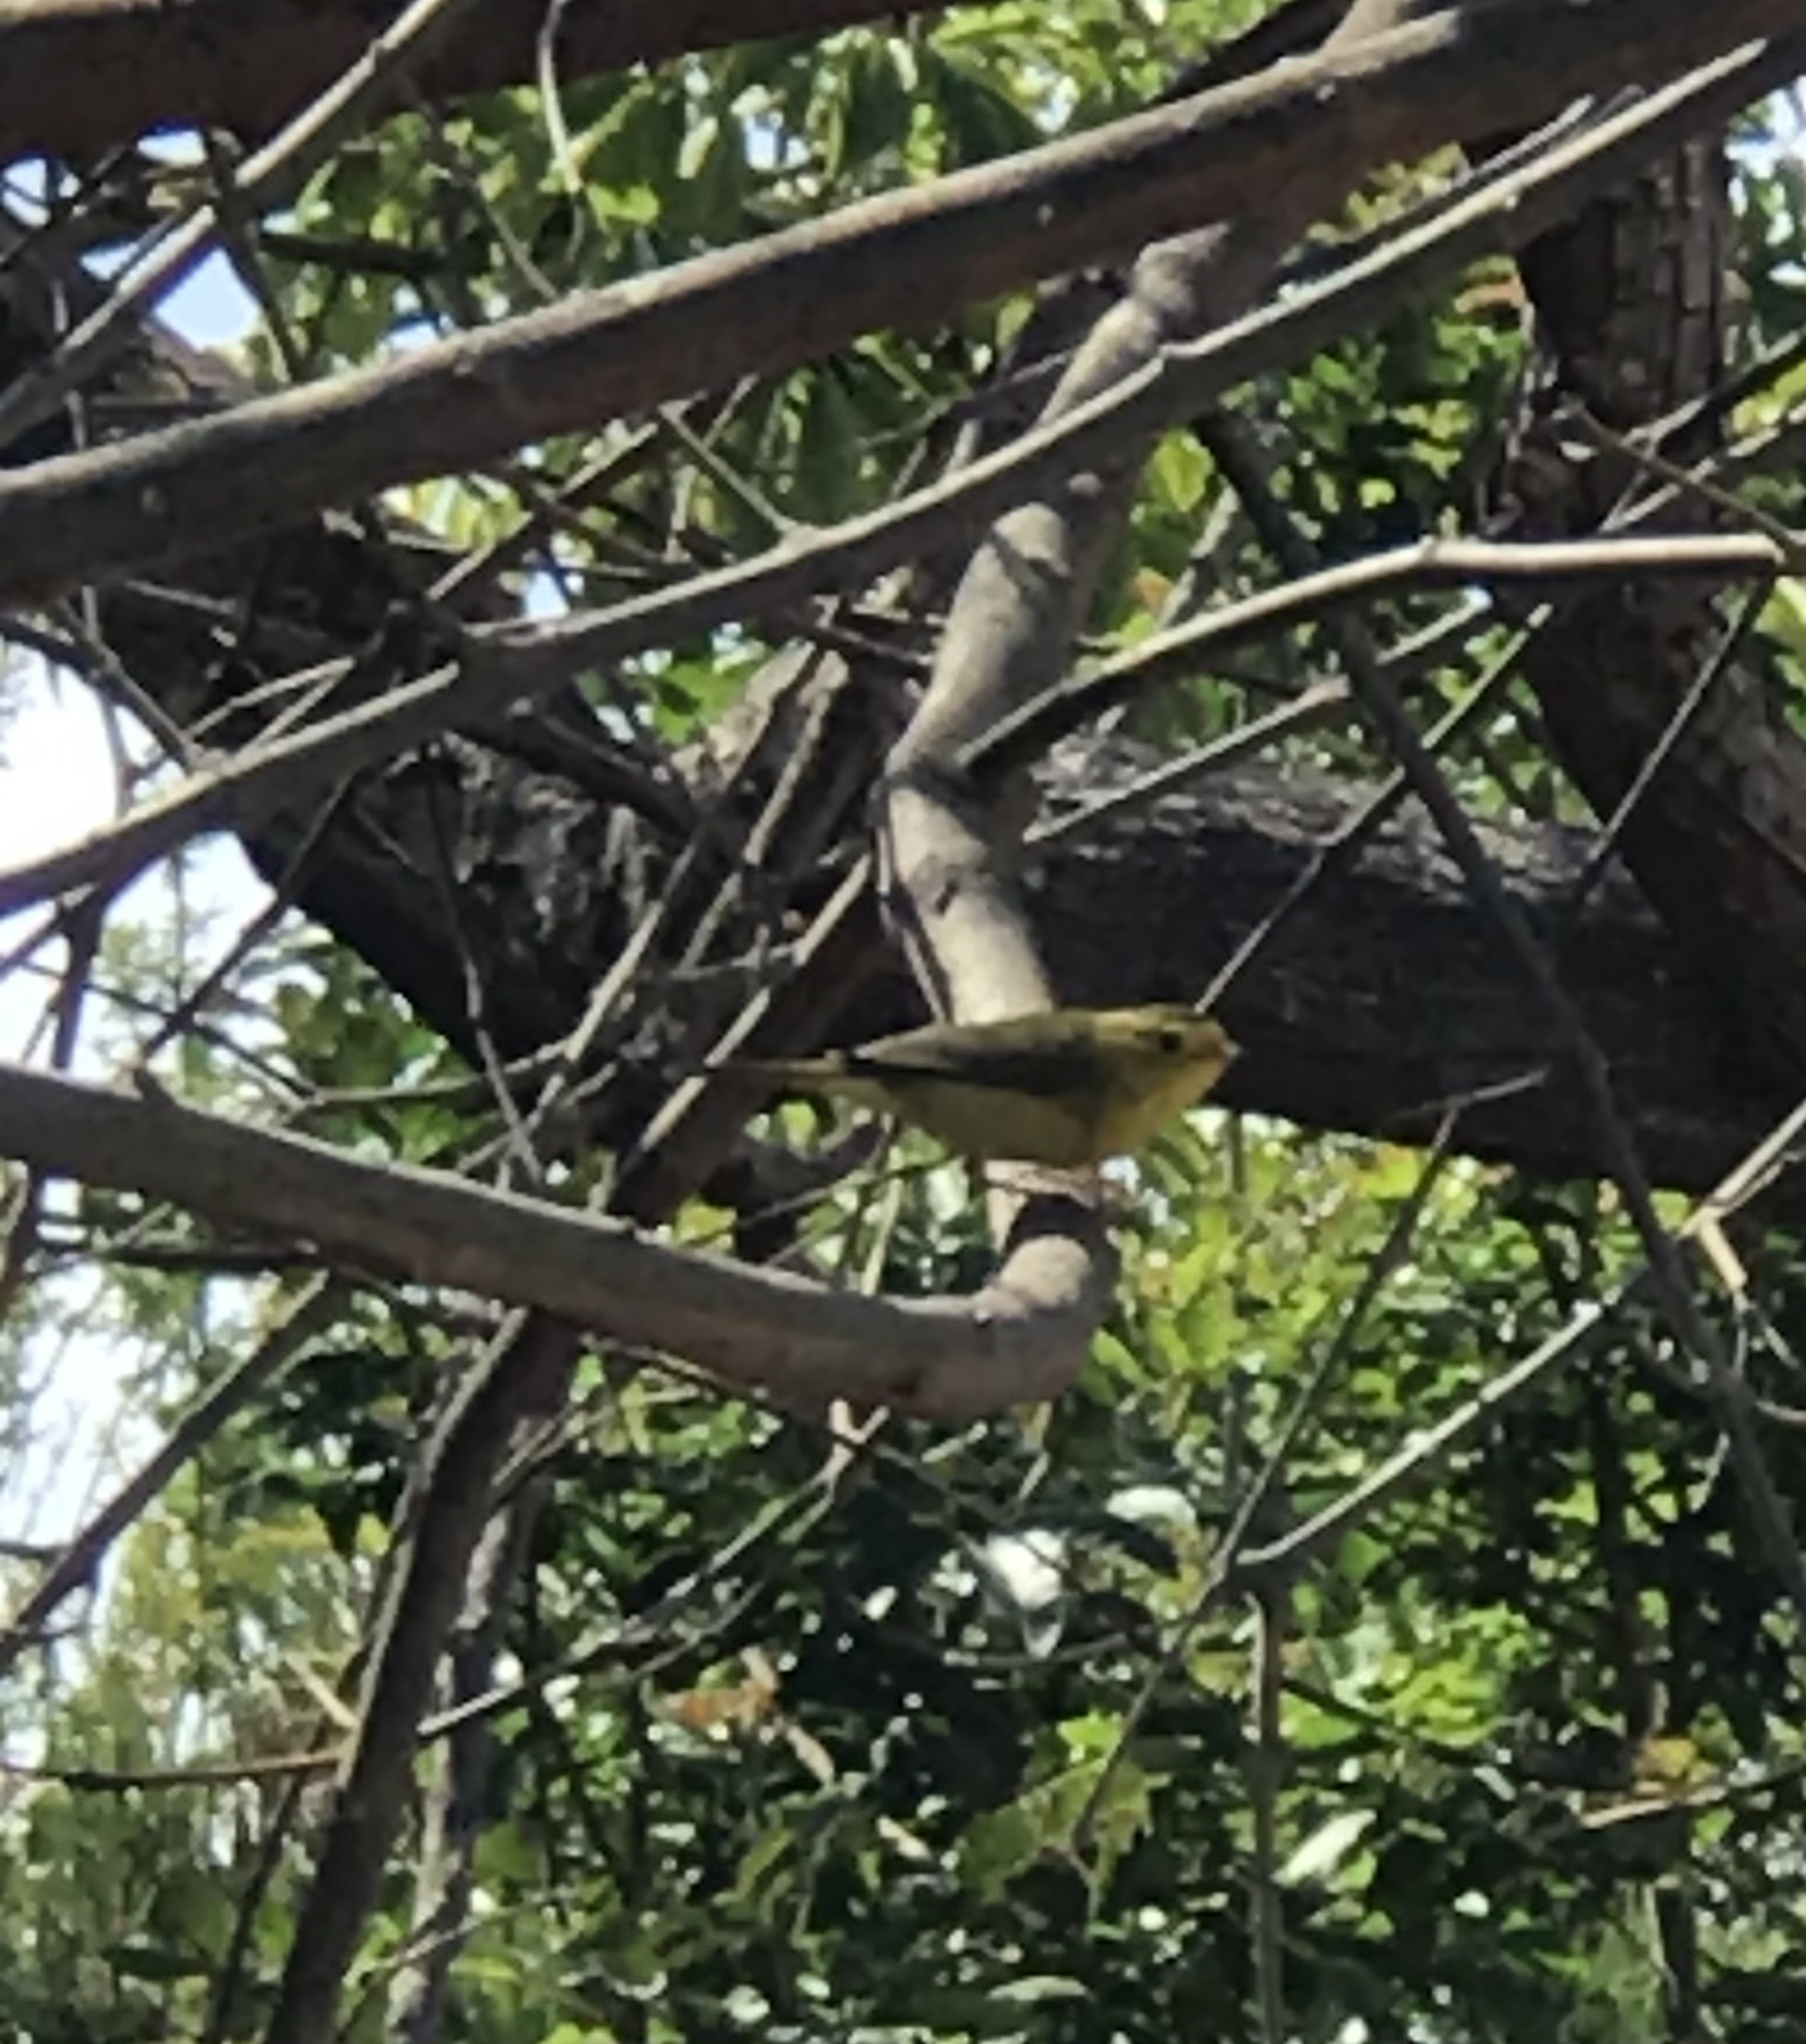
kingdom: Animalia
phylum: Chordata
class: Aves
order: Passeriformes
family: Parulidae
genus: Cardellina
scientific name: Cardellina pusilla
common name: Wilson's warbler
